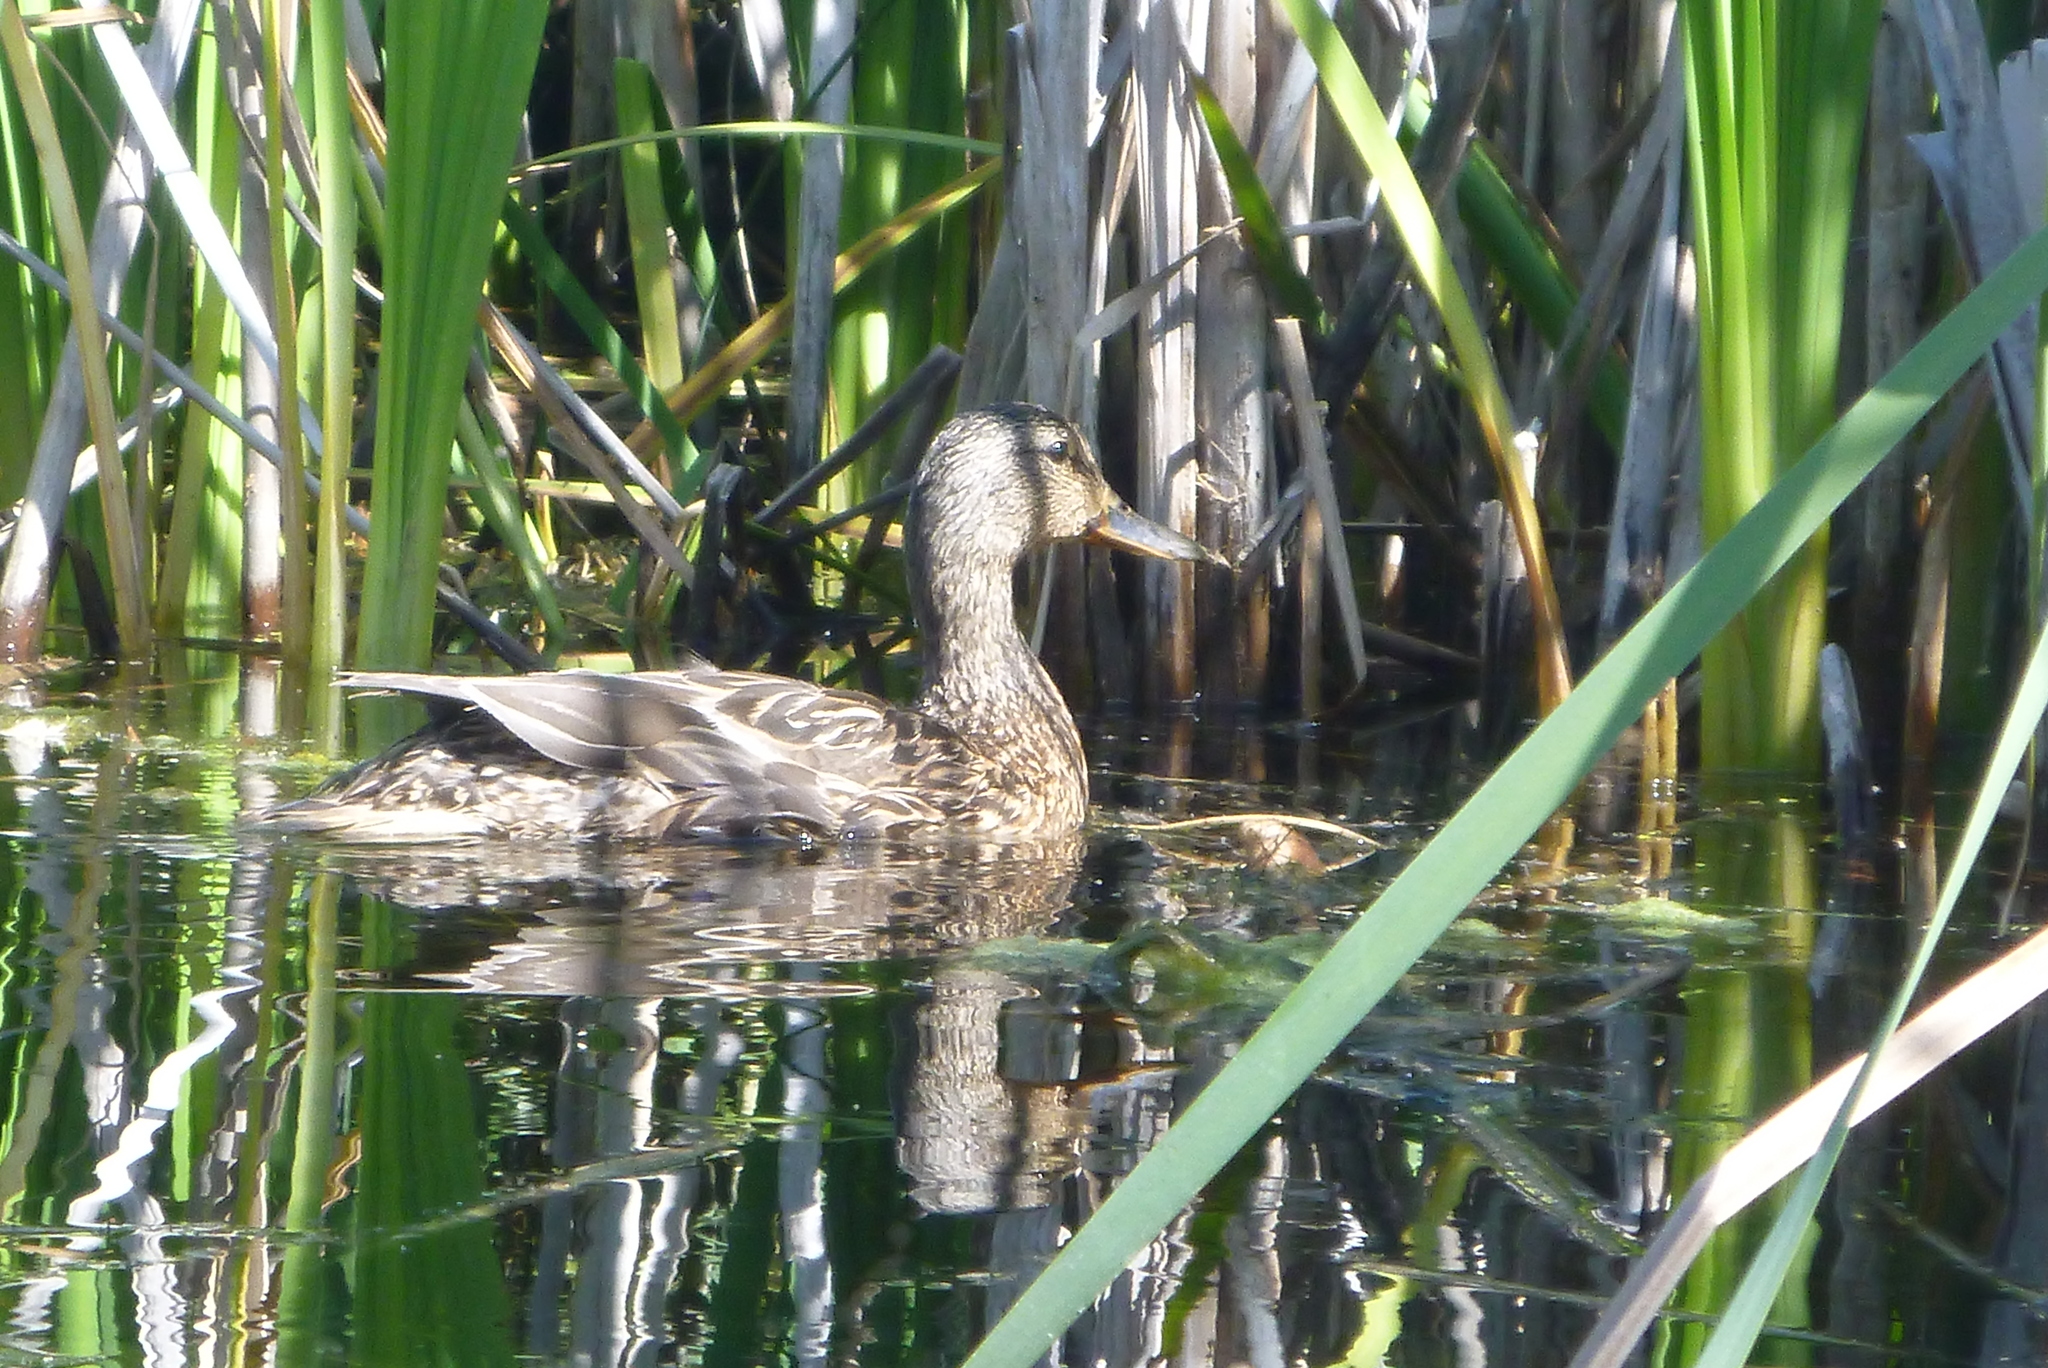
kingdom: Animalia
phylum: Chordata
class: Aves
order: Anseriformes
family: Anatidae
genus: Anas
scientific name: Anas platyrhynchos
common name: Mallard
